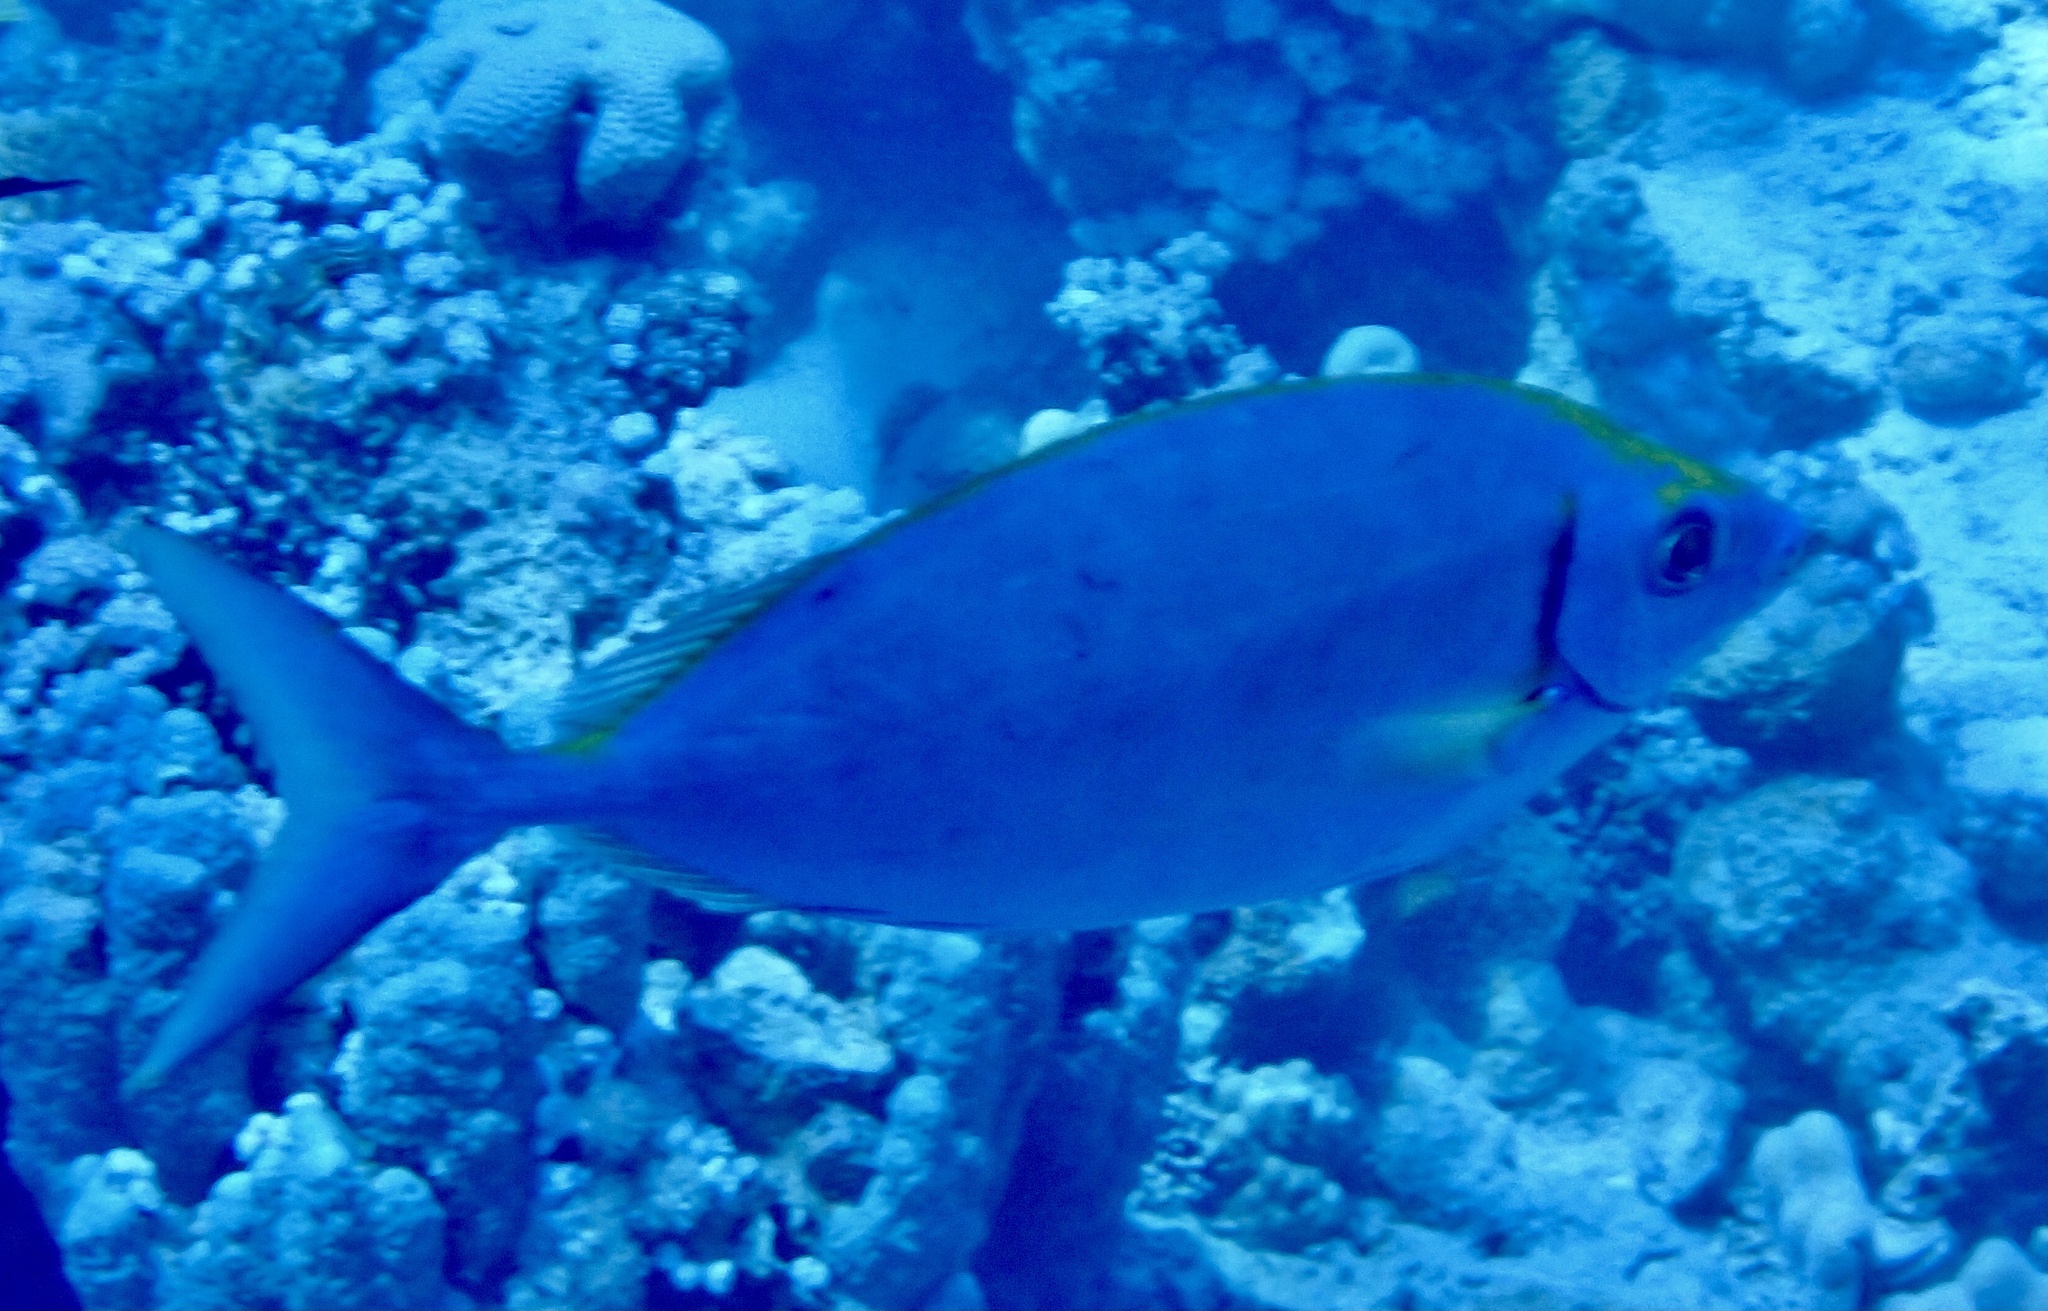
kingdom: Animalia
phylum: Chordata
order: Perciformes
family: Siganidae
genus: Siganus
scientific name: Siganus argenteus
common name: Forktail rabbitfish
